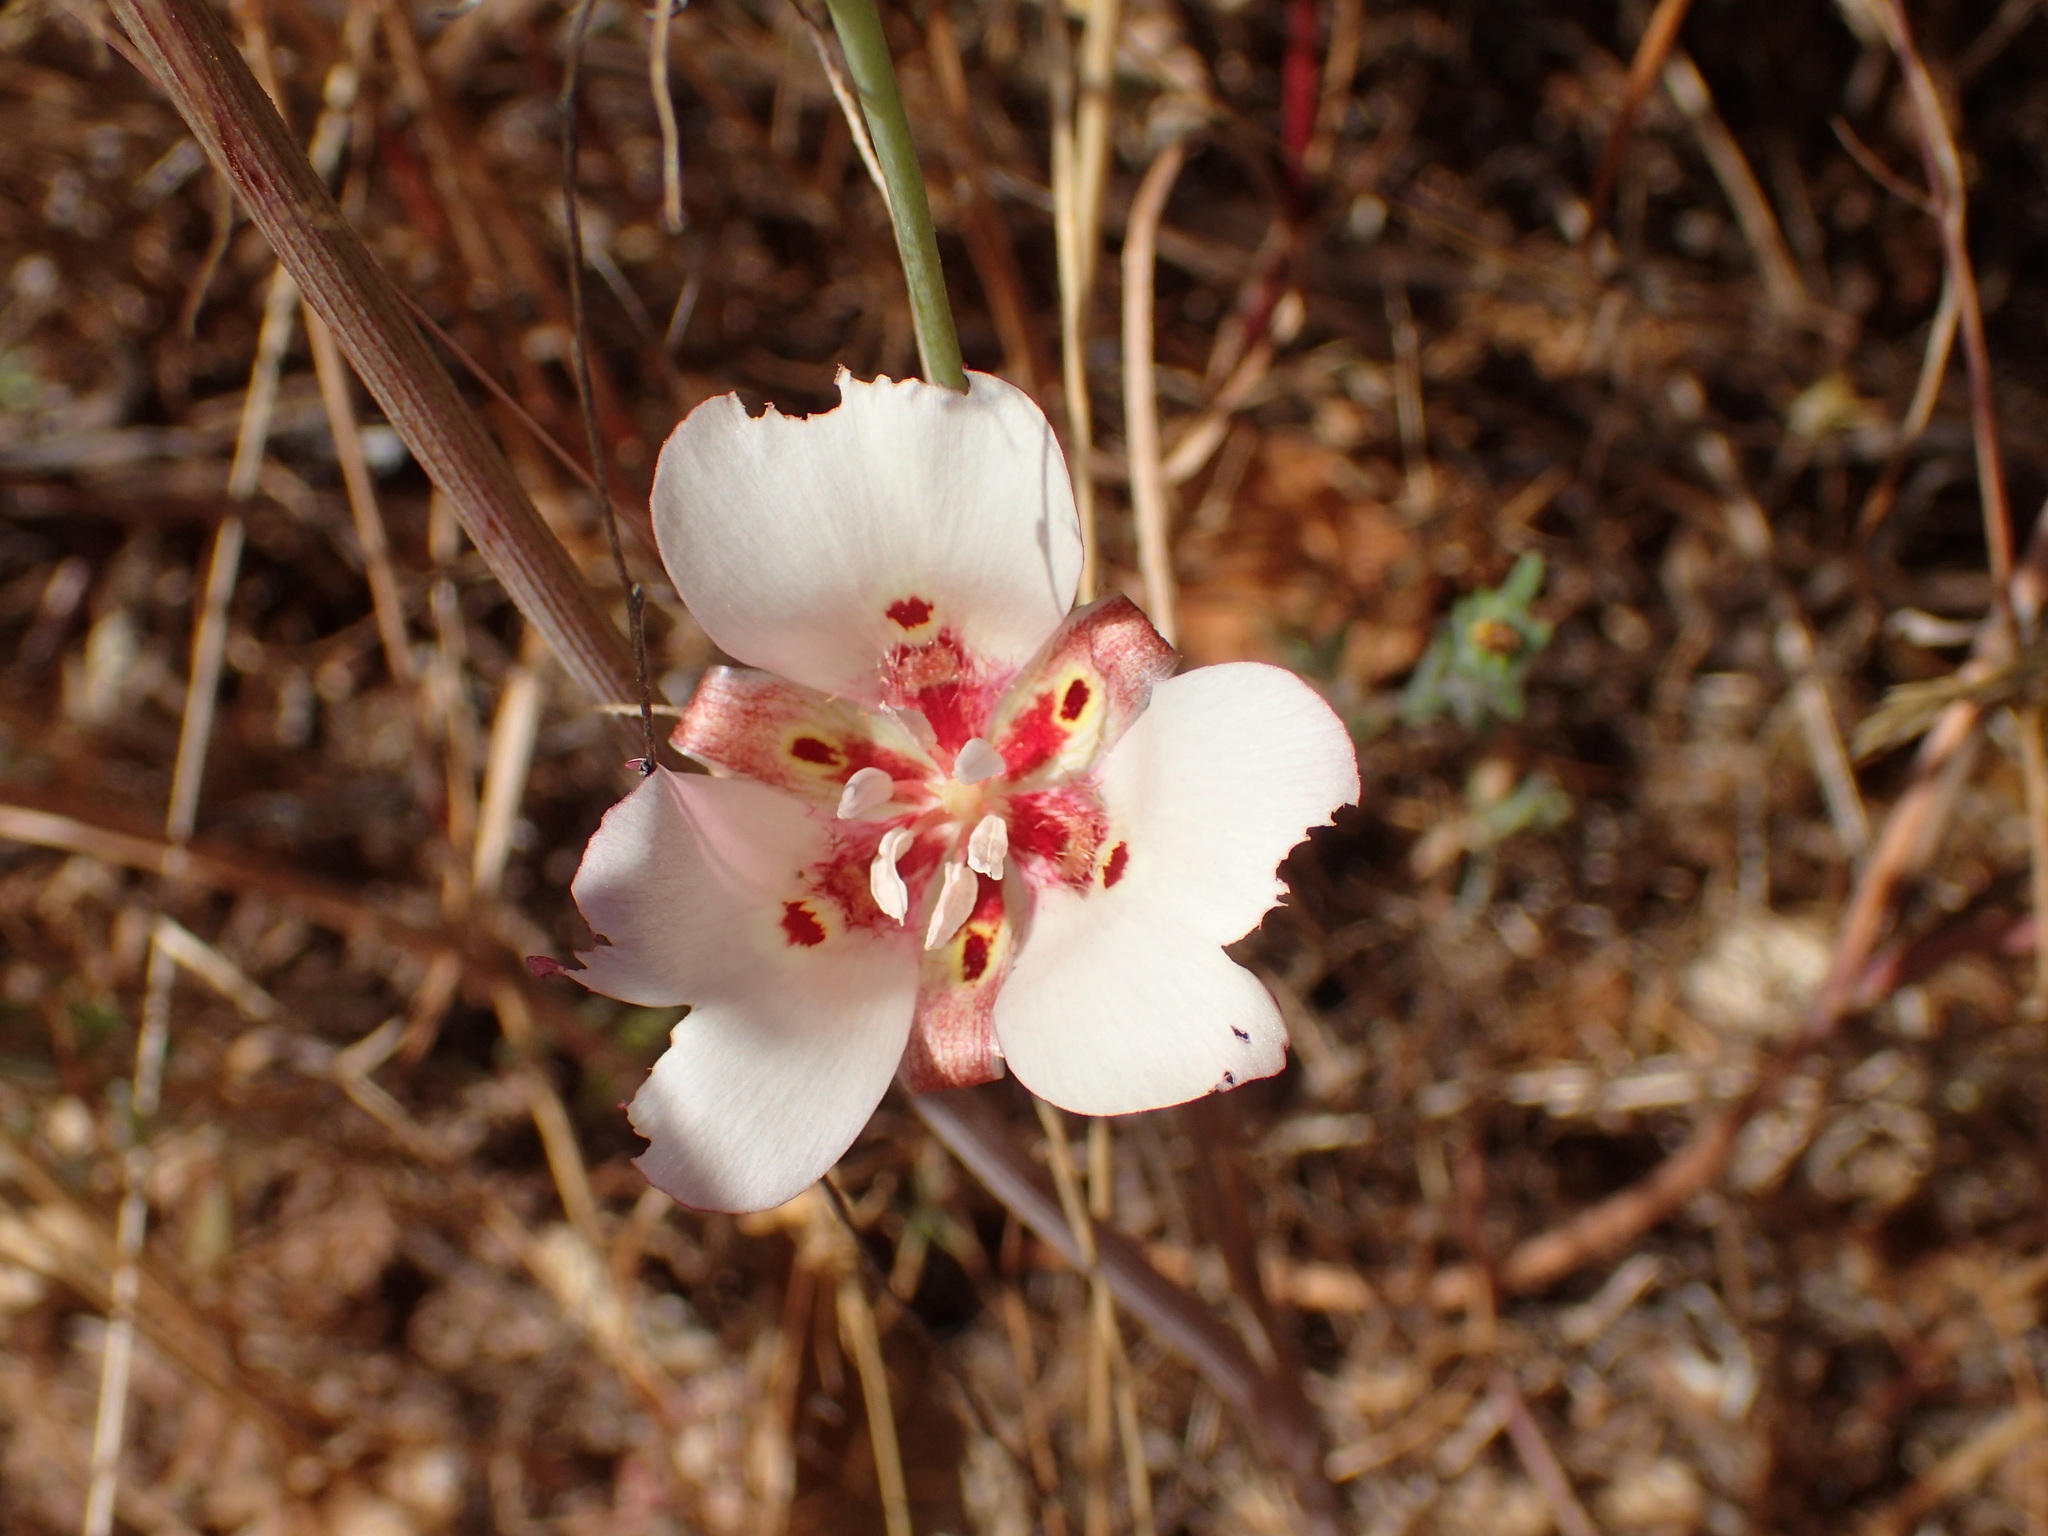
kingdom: Plantae
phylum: Tracheophyta
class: Liliopsida
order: Liliales
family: Liliaceae
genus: Calochortus
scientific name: Calochortus venustus
